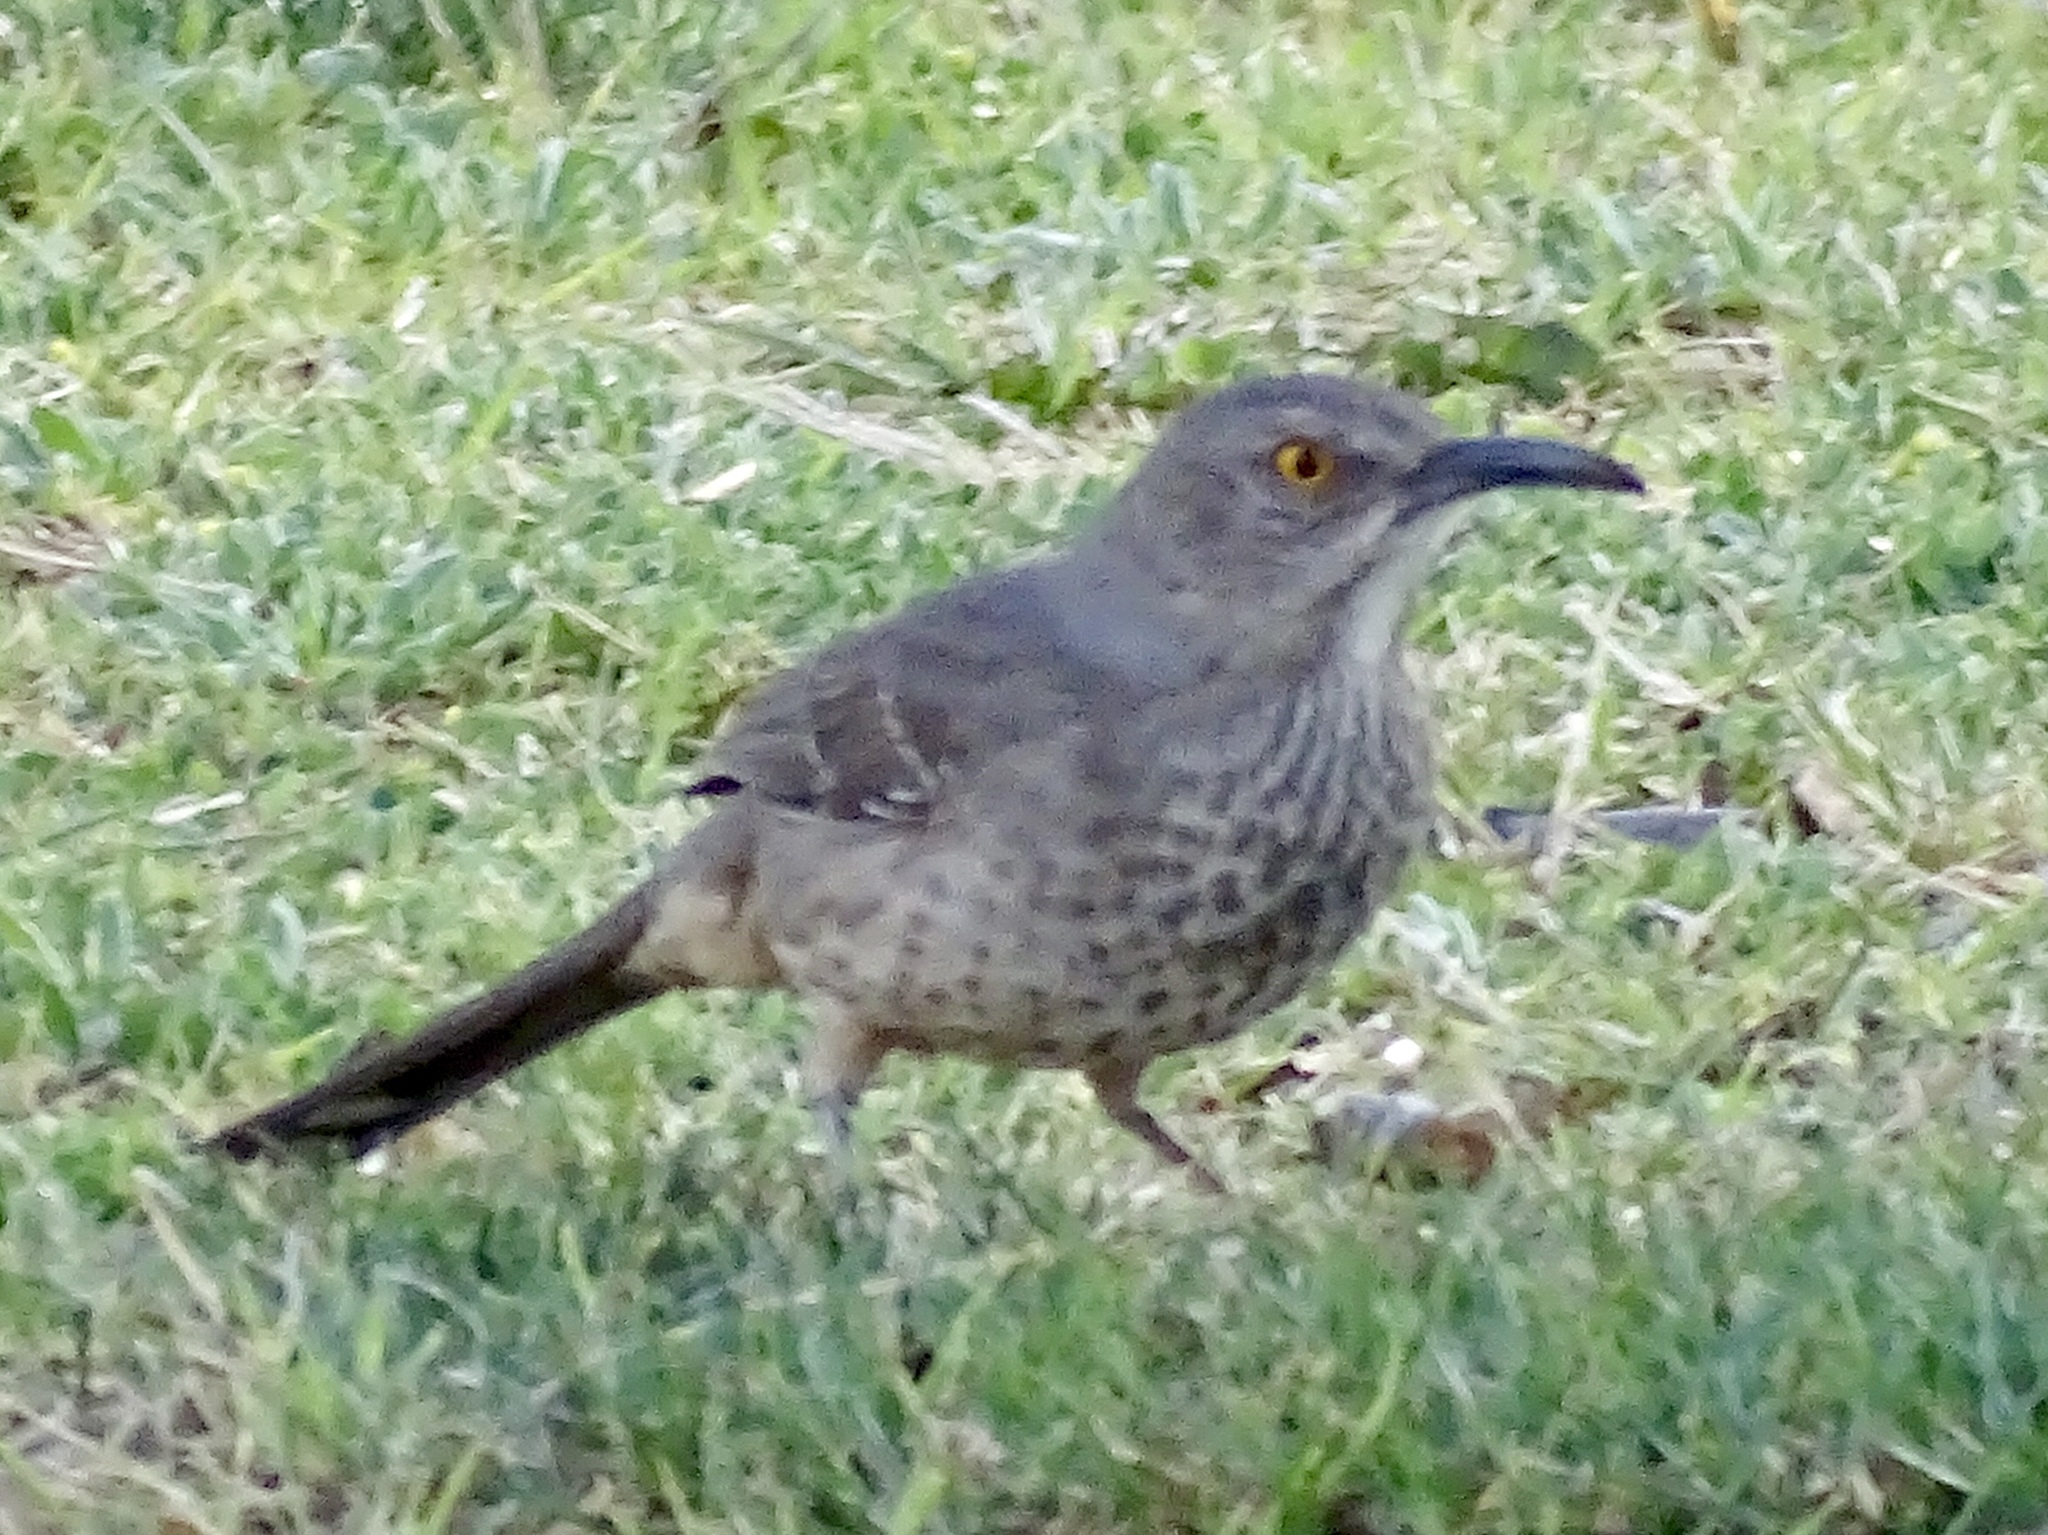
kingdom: Animalia
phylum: Chordata
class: Aves
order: Passeriformes
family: Mimidae
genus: Toxostoma
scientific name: Toxostoma curvirostre
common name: Curve-billed thrasher
